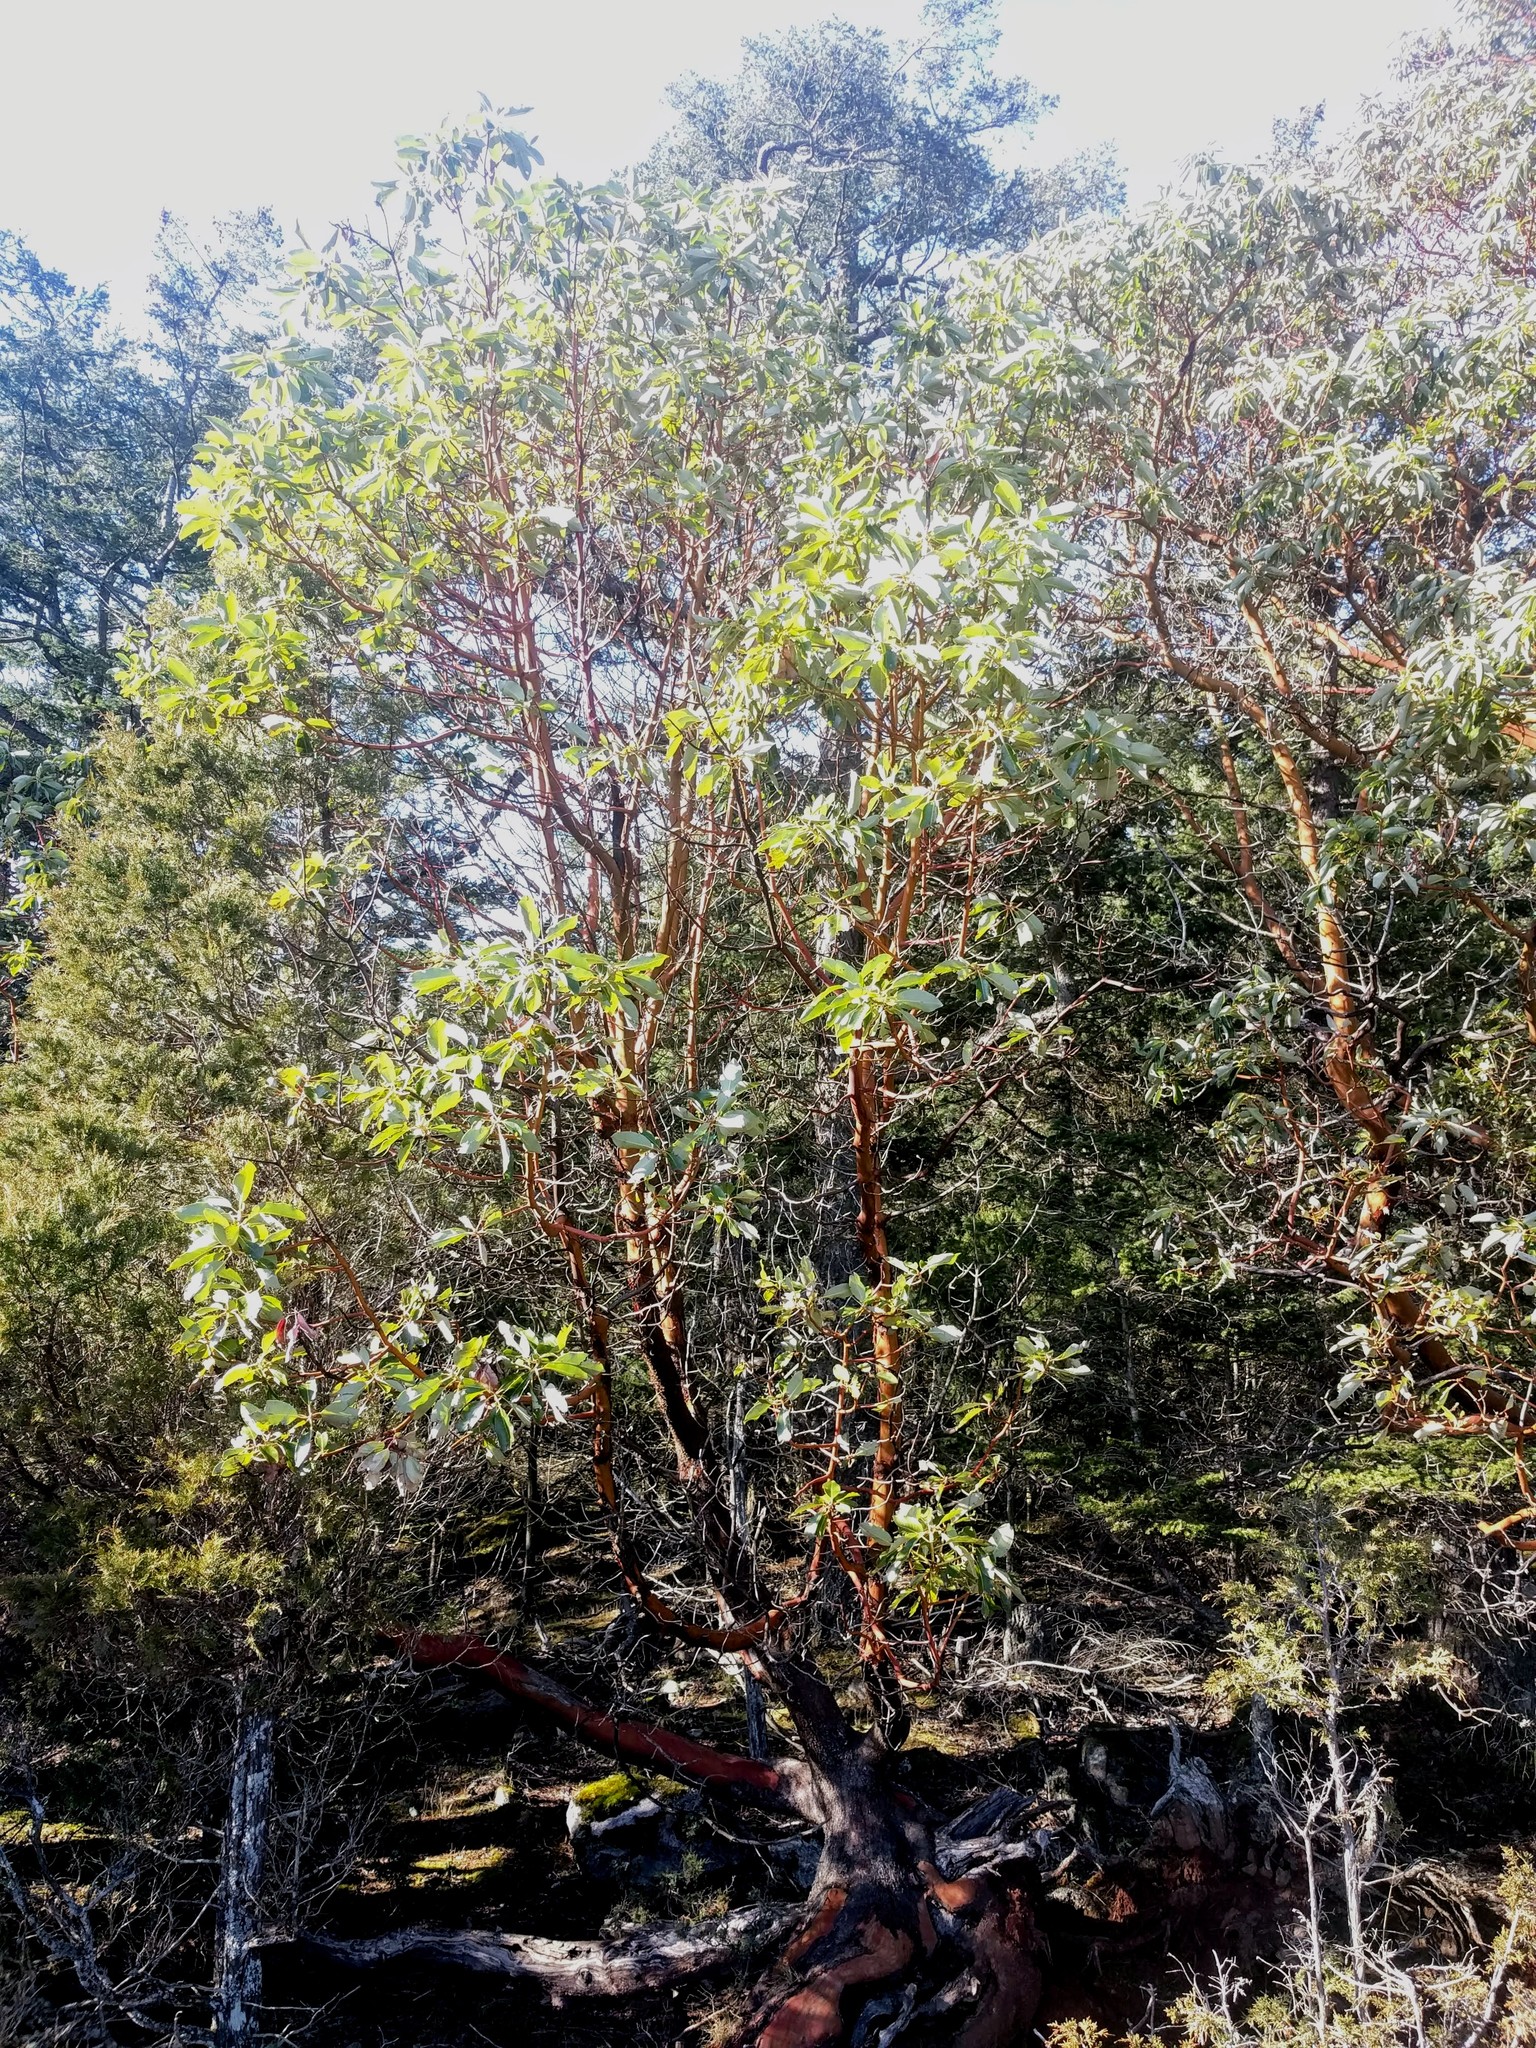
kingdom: Plantae
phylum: Tracheophyta
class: Magnoliopsida
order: Ericales
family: Ericaceae
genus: Arbutus
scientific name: Arbutus menziesii
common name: Pacific madrone
